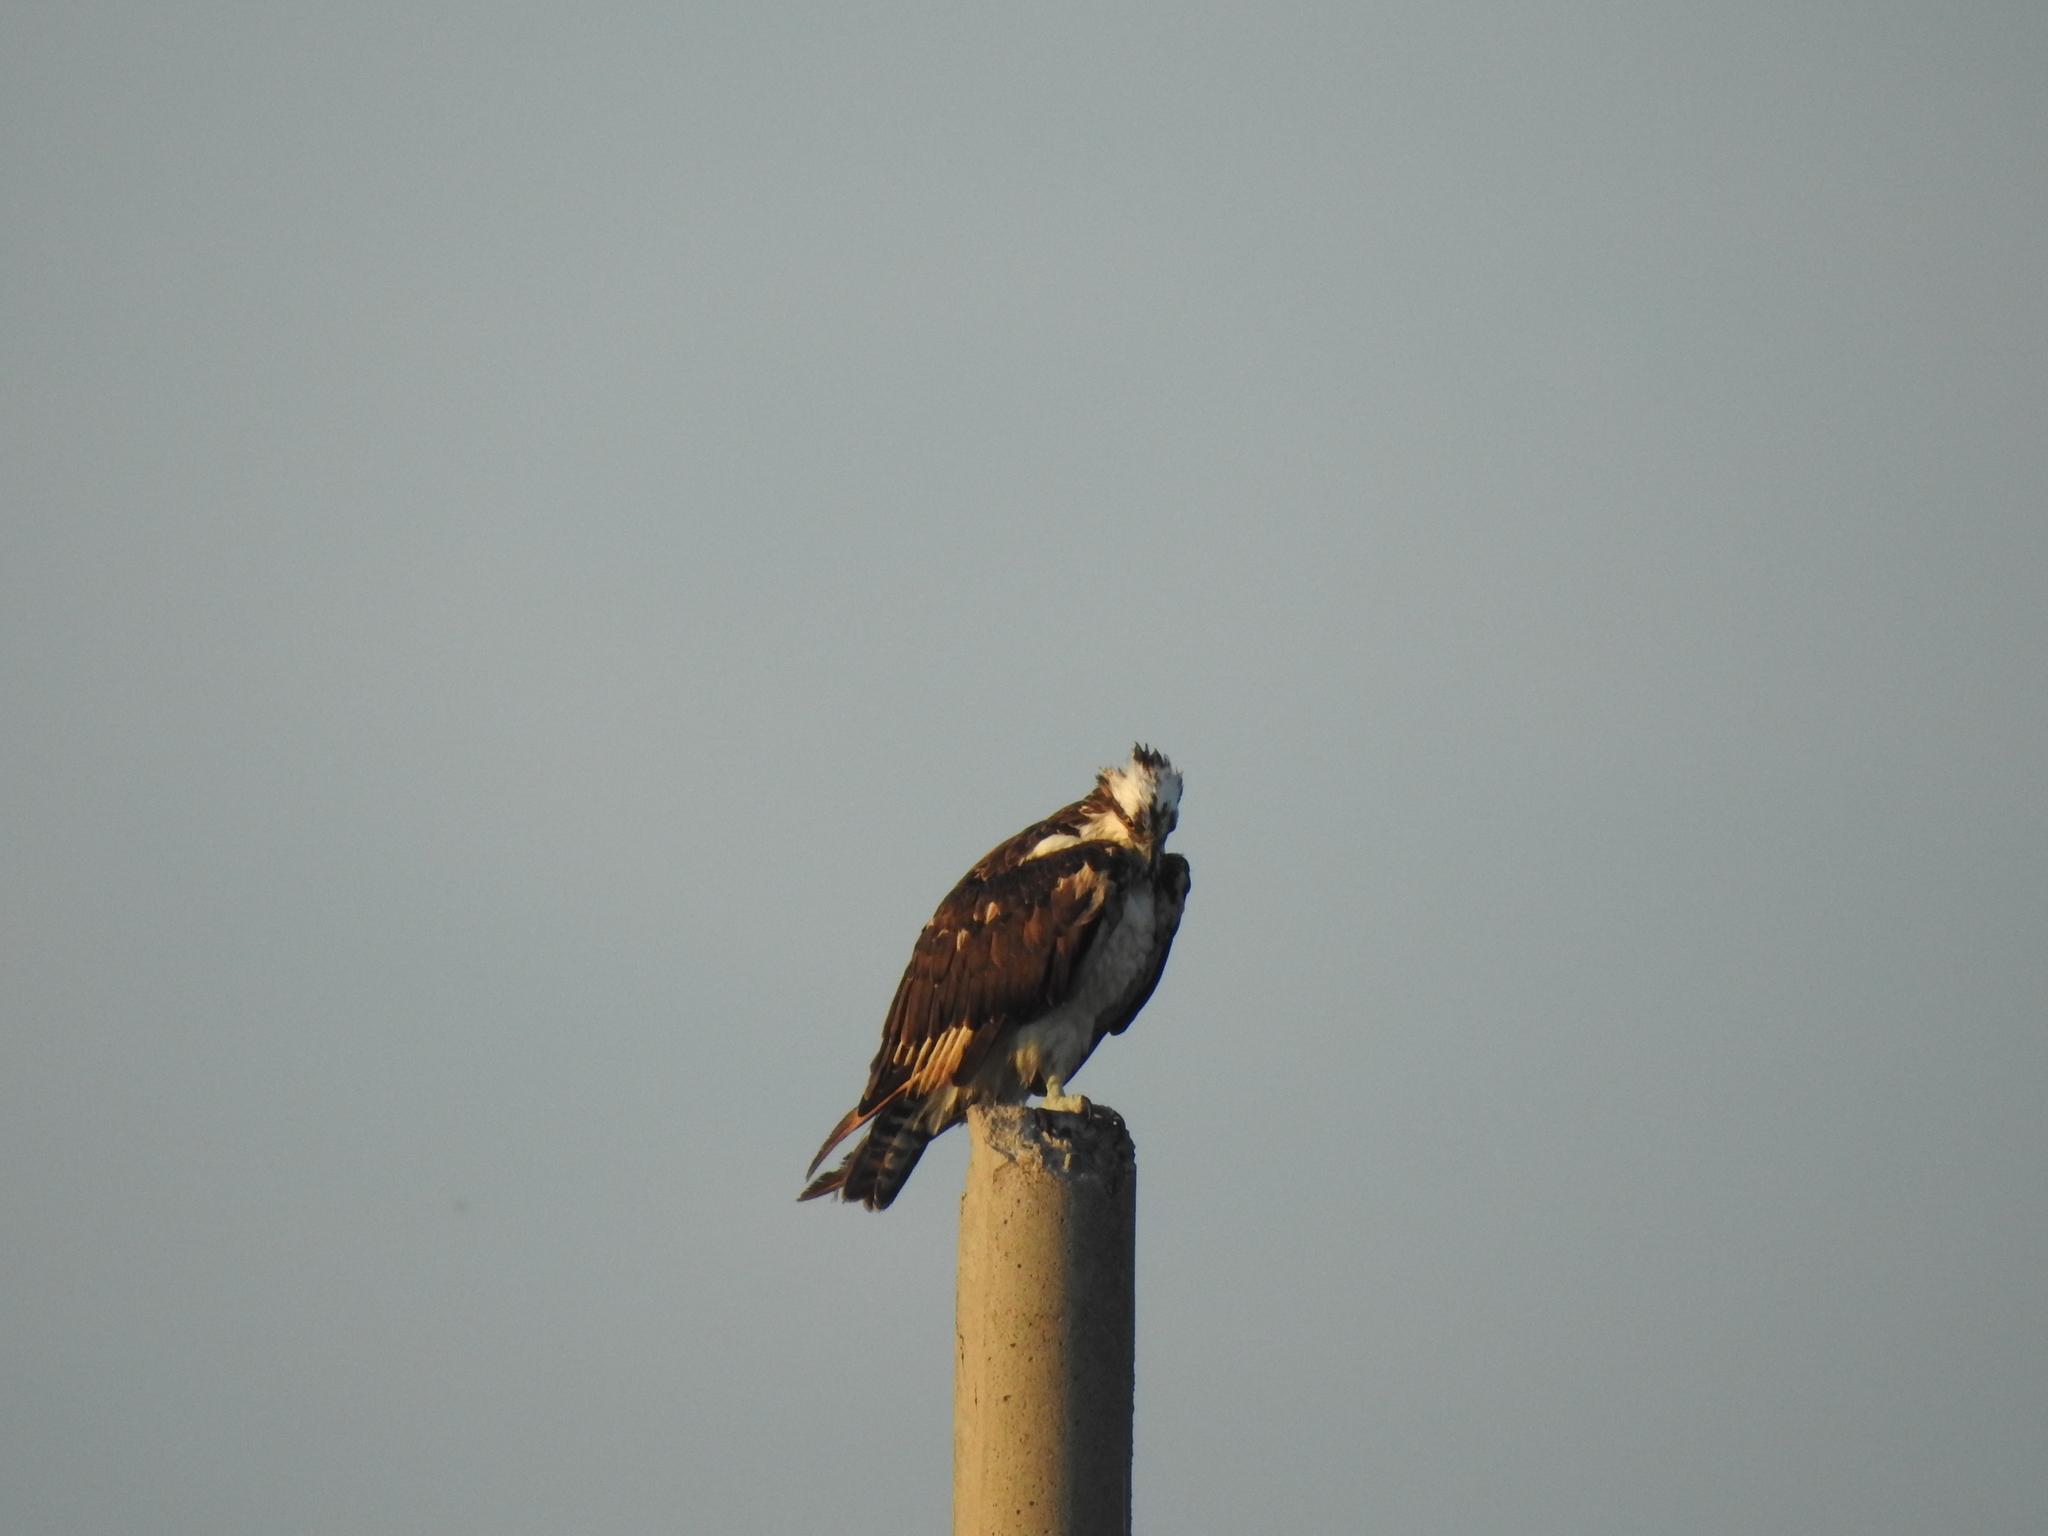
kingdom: Animalia
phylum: Chordata
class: Aves
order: Accipitriformes
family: Pandionidae
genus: Pandion
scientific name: Pandion haliaetus
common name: Osprey
